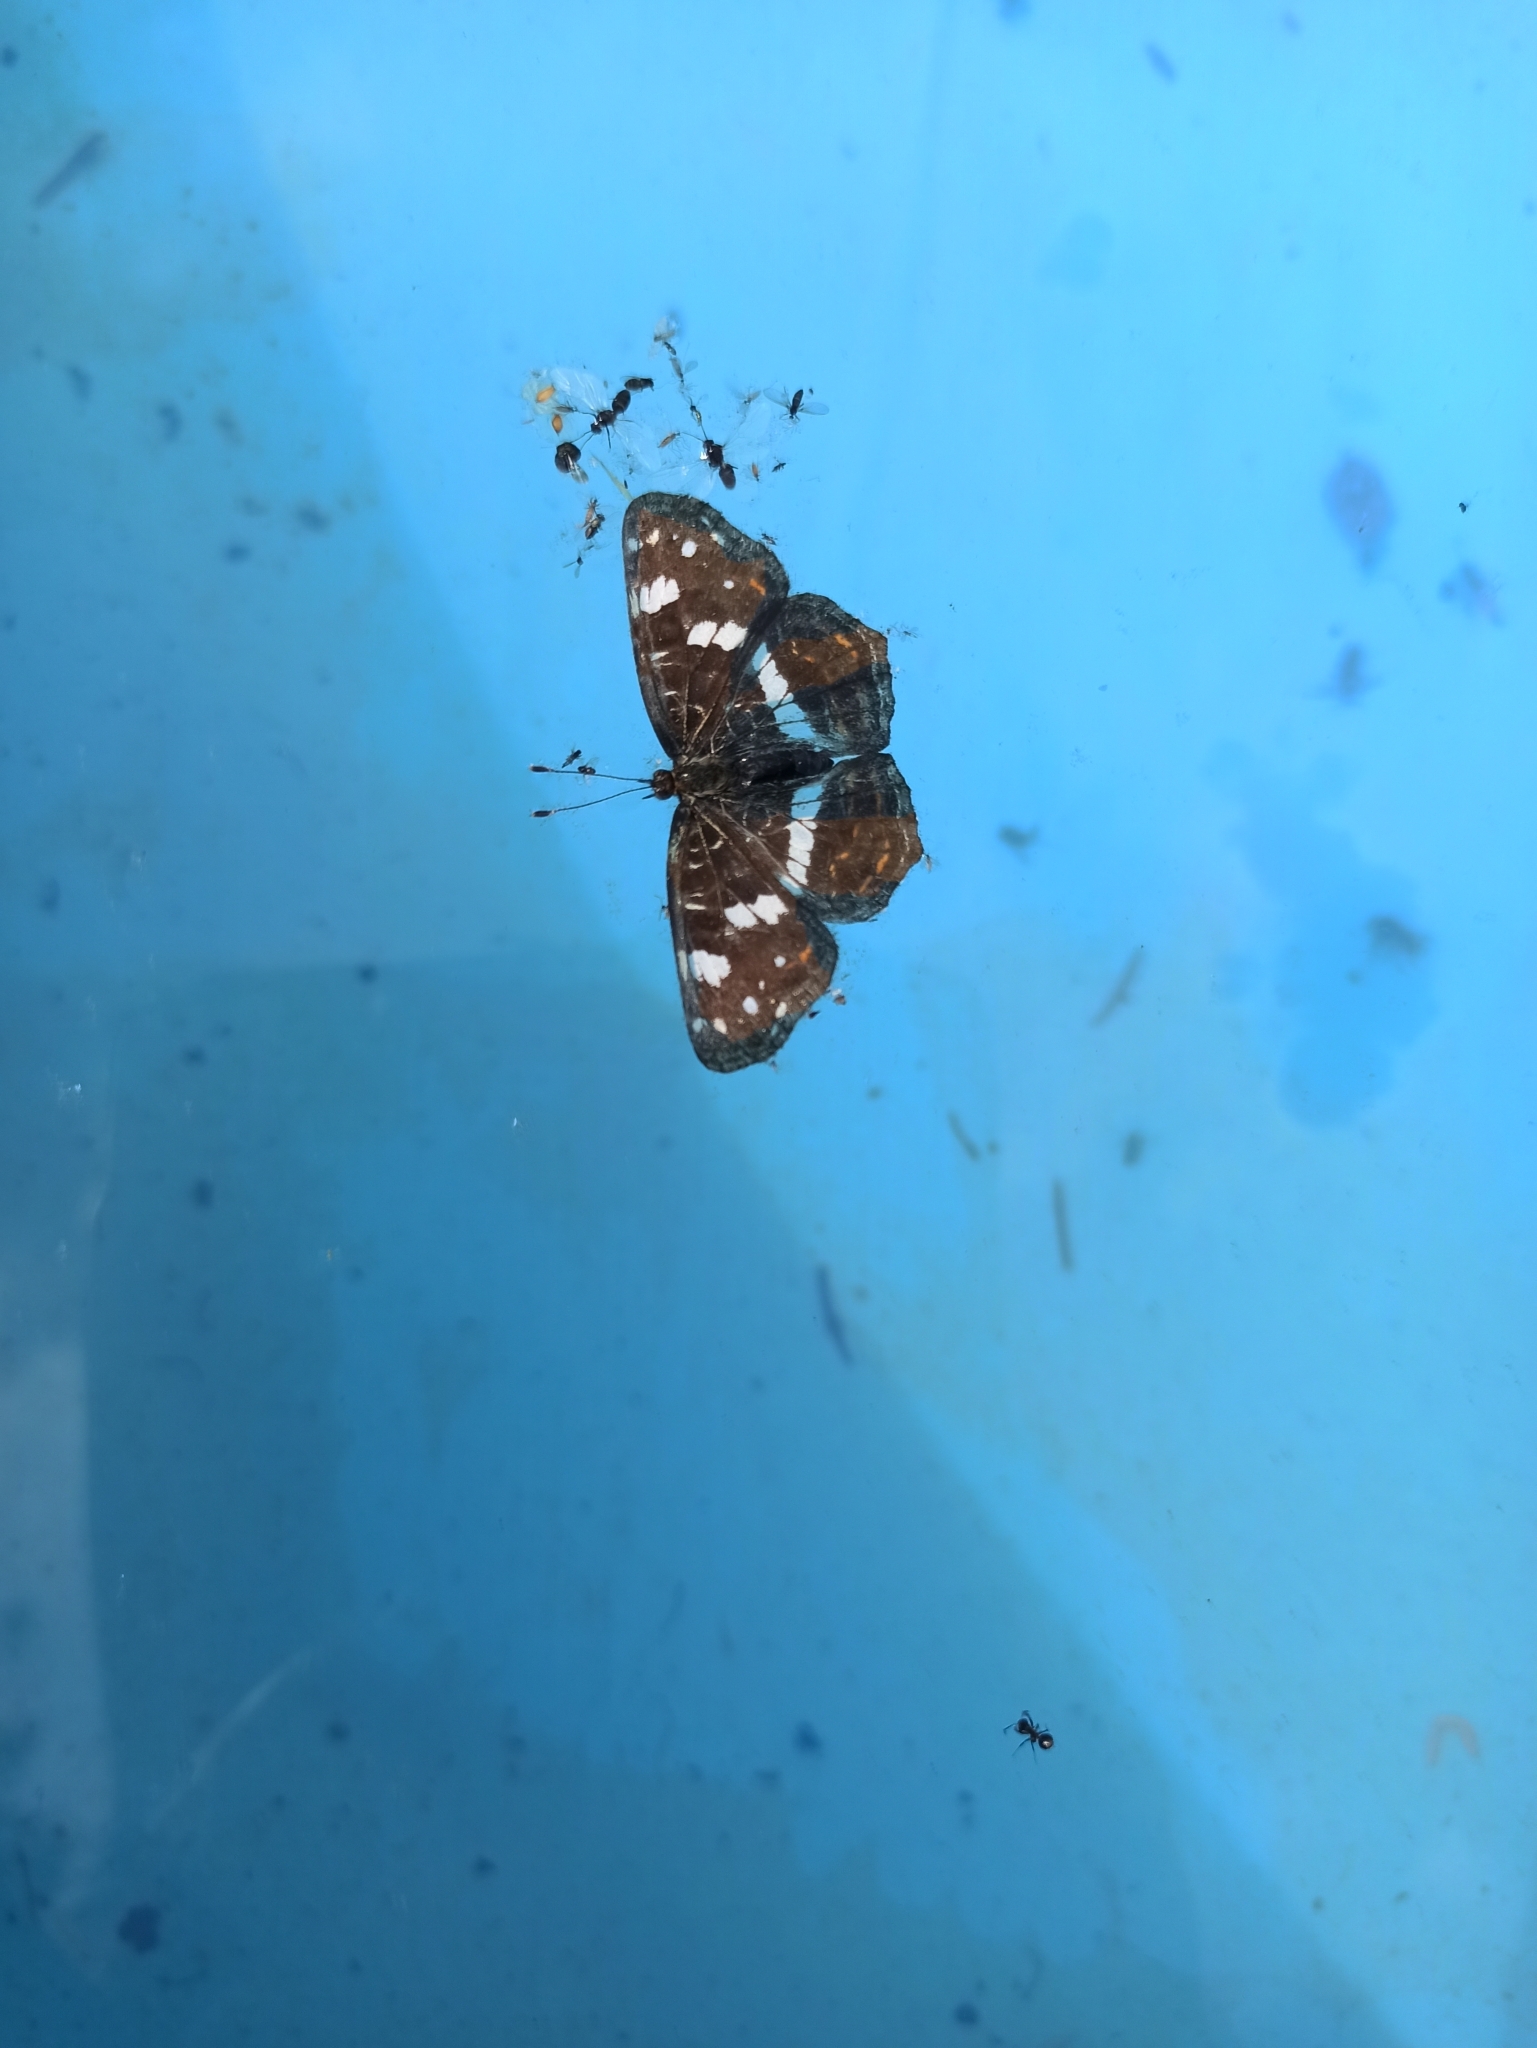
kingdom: Animalia
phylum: Arthropoda
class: Insecta
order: Lepidoptera
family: Nymphalidae
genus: Araschnia
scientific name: Araschnia levana
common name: Map butterfly
